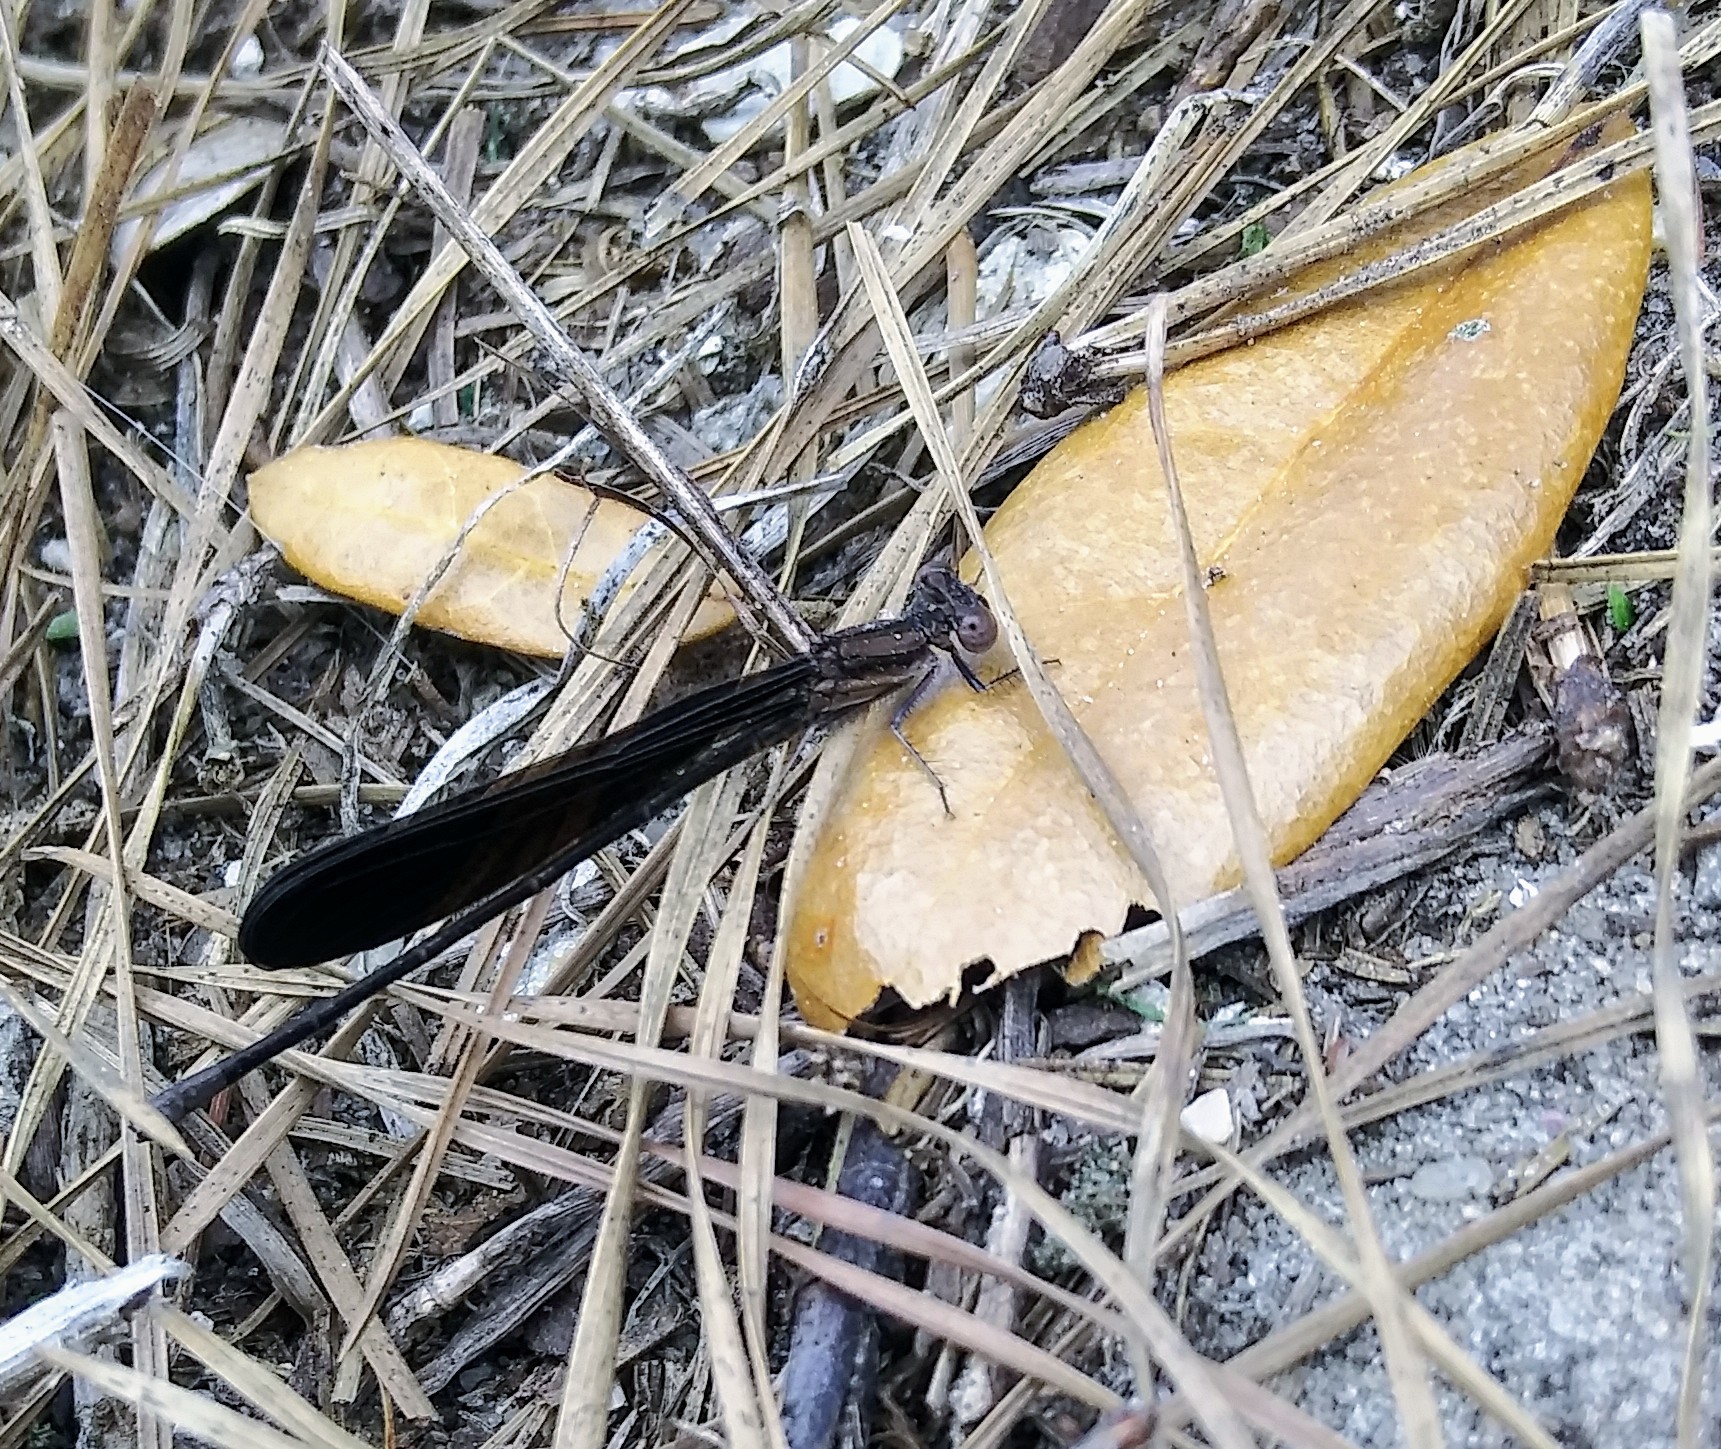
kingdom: Animalia
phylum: Arthropoda
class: Insecta
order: Odonata
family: Coenagrionidae
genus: Argia
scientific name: Argia fumipennis
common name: Variable dancer
